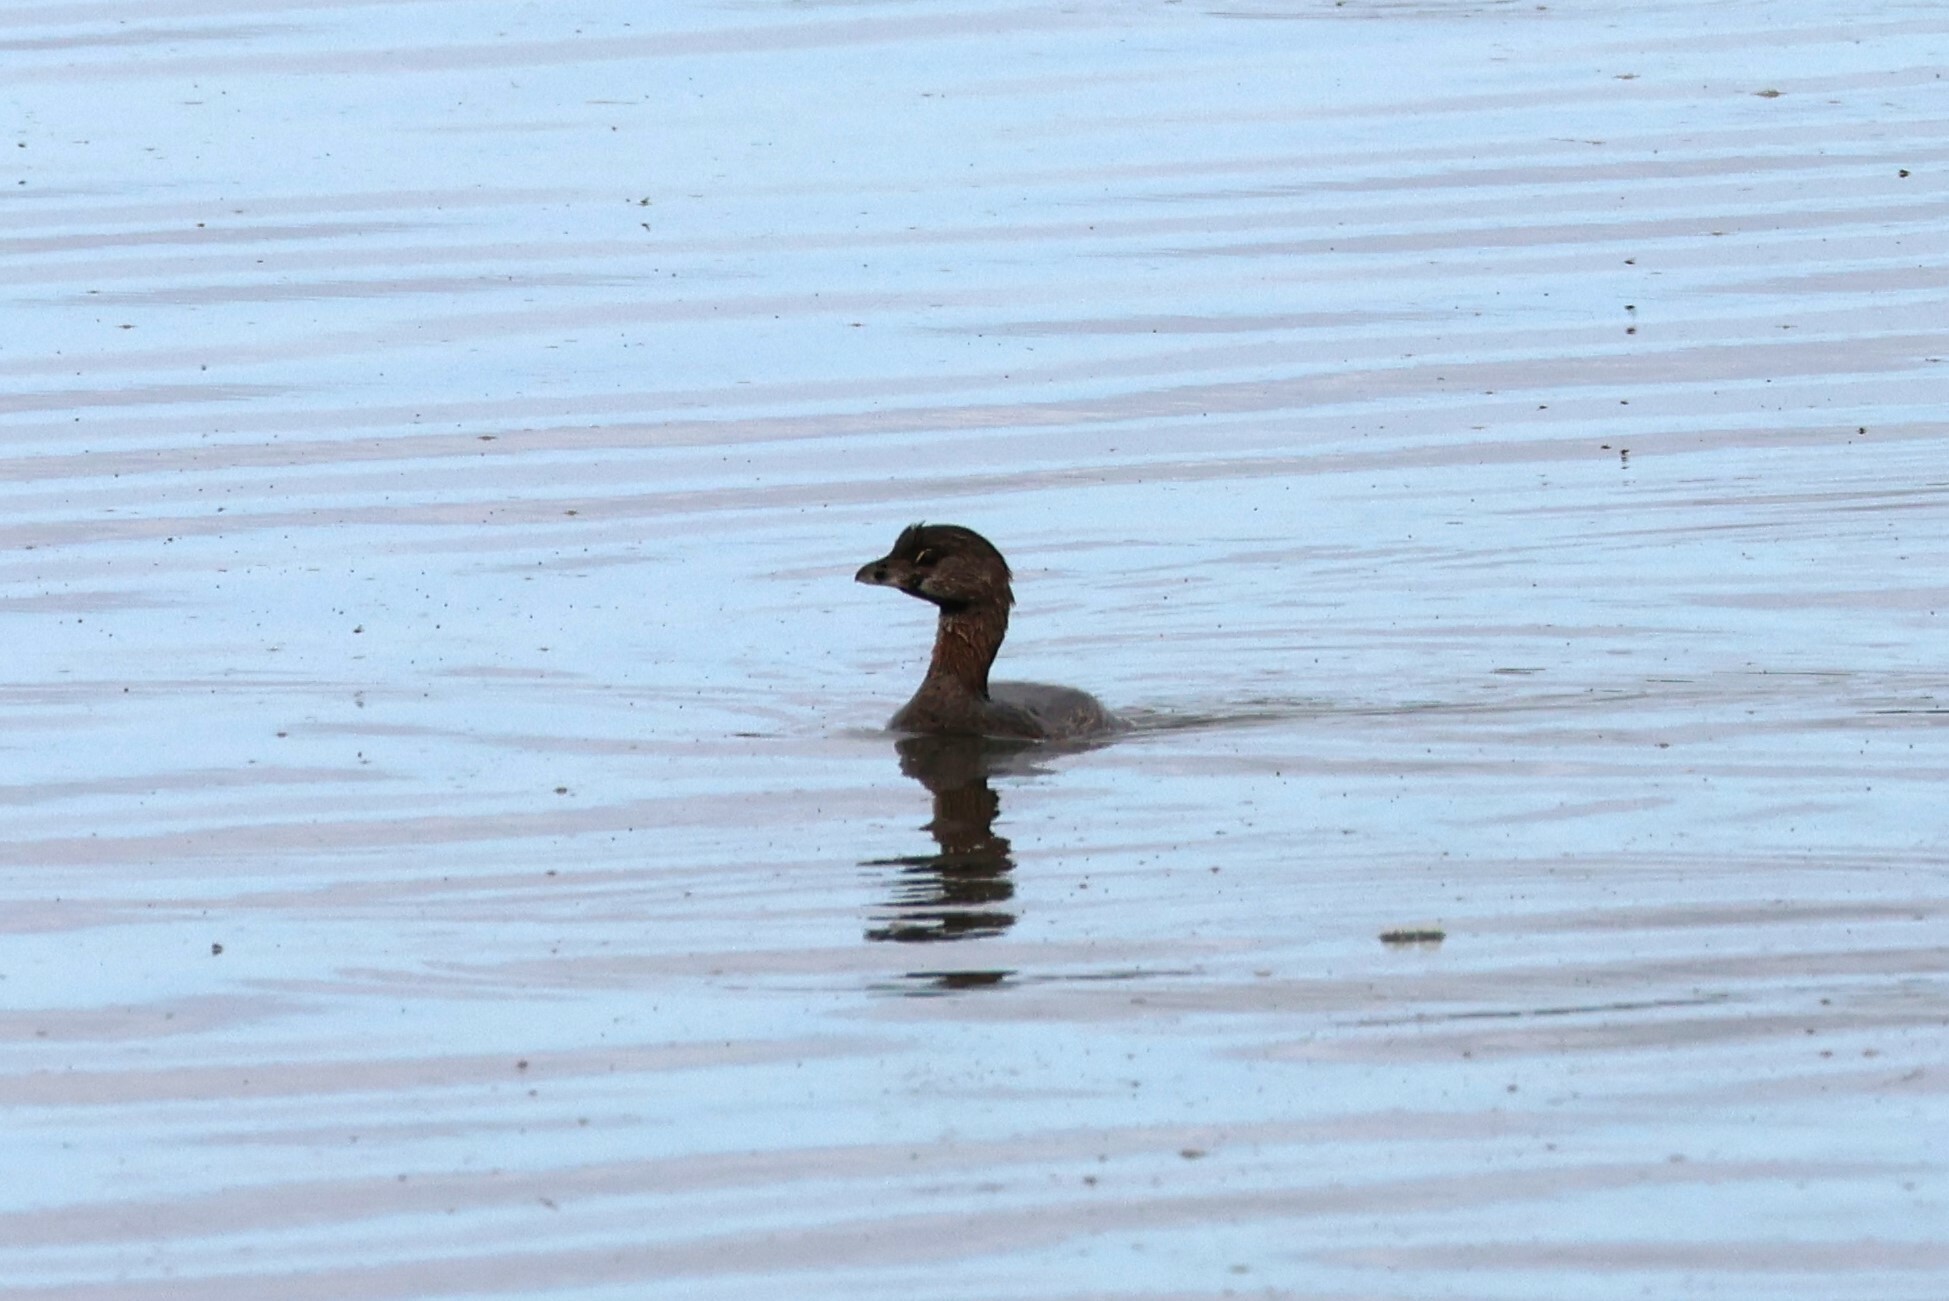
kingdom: Animalia
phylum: Chordata
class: Aves
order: Podicipediformes
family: Podicipedidae
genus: Podilymbus
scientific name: Podilymbus podiceps
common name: Pied-billed grebe
